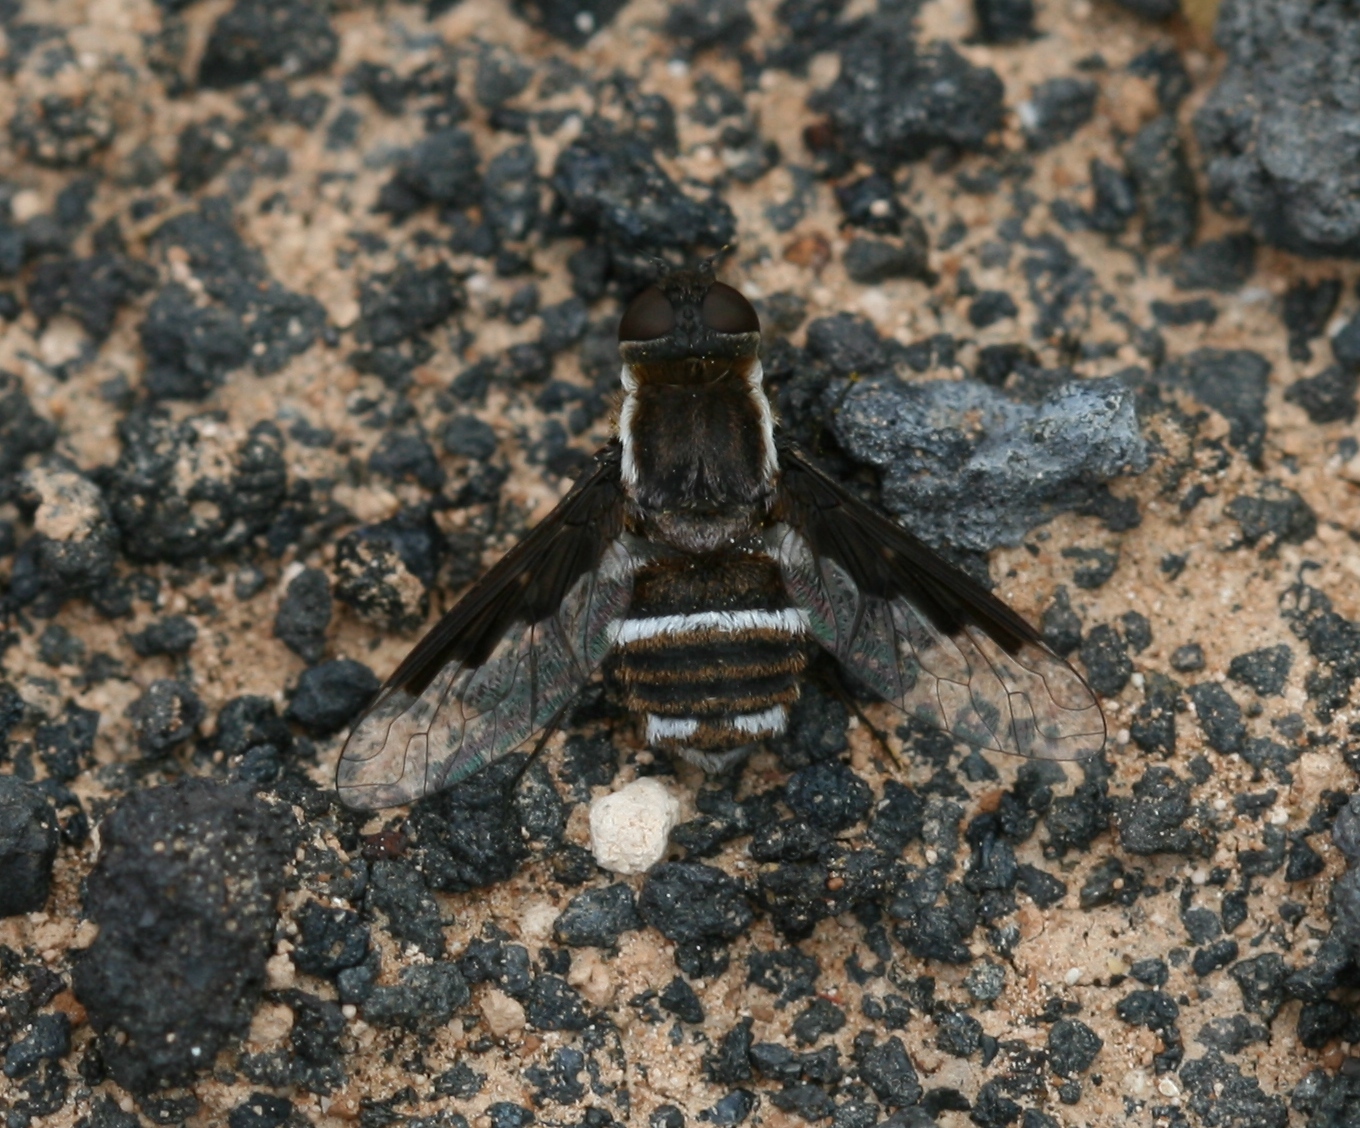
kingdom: Animalia
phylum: Arthropoda
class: Insecta
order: Diptera
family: Bombyliidae
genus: Exhyalanthrax
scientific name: Exhyalanthrax simonae
